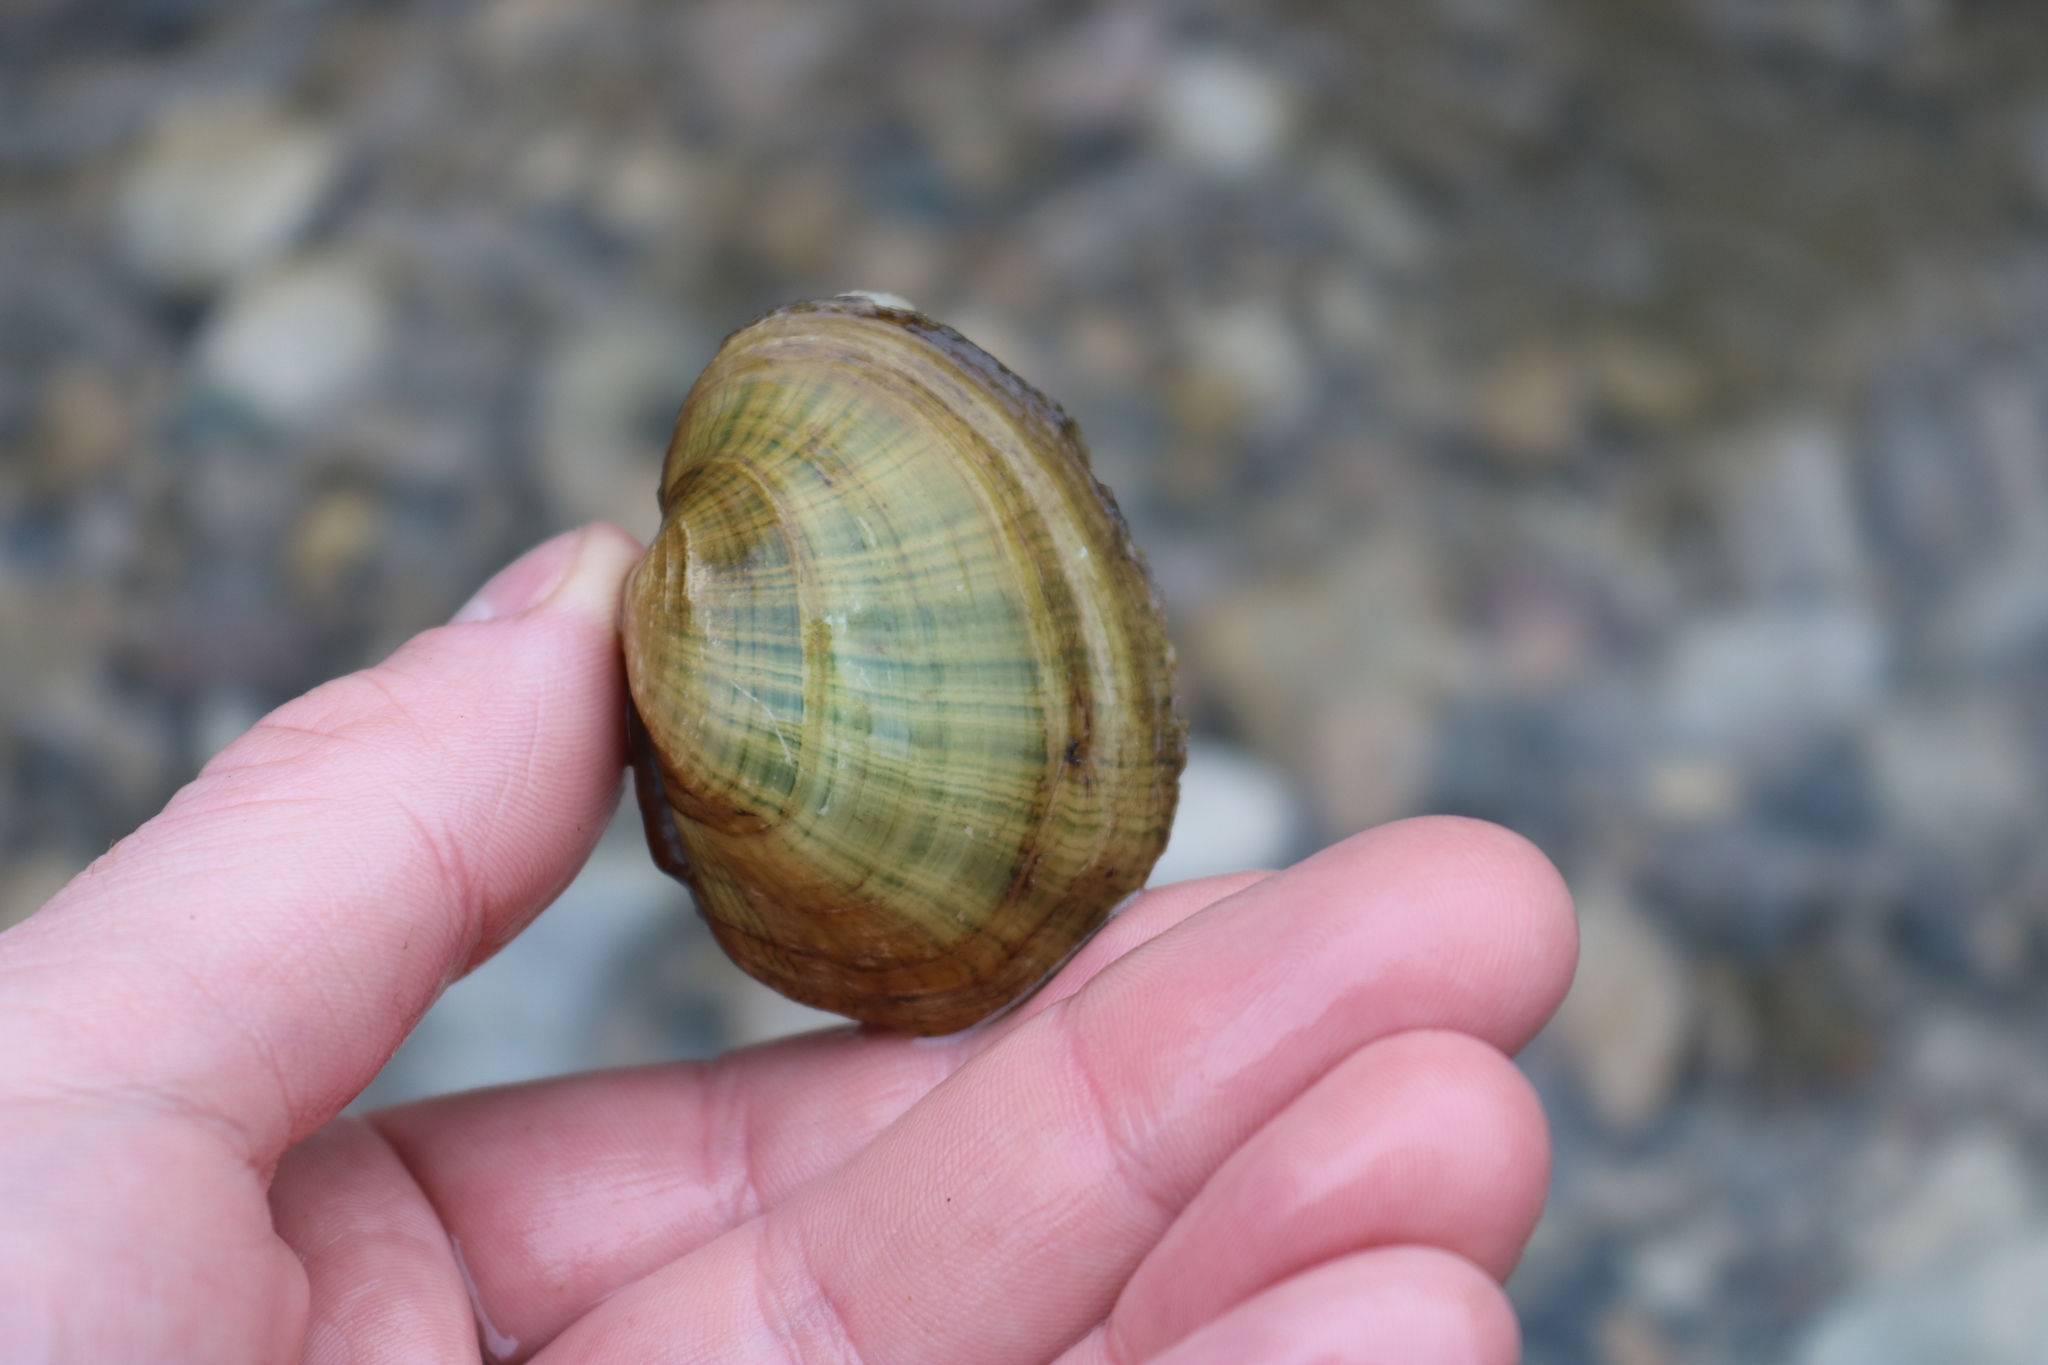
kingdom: Animalia
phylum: Mollusca
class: Bivalvia
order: Unionida
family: Unionidae
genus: Lampsilis
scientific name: Lampsilis fasciola
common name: Wavyrayed lampmussel
